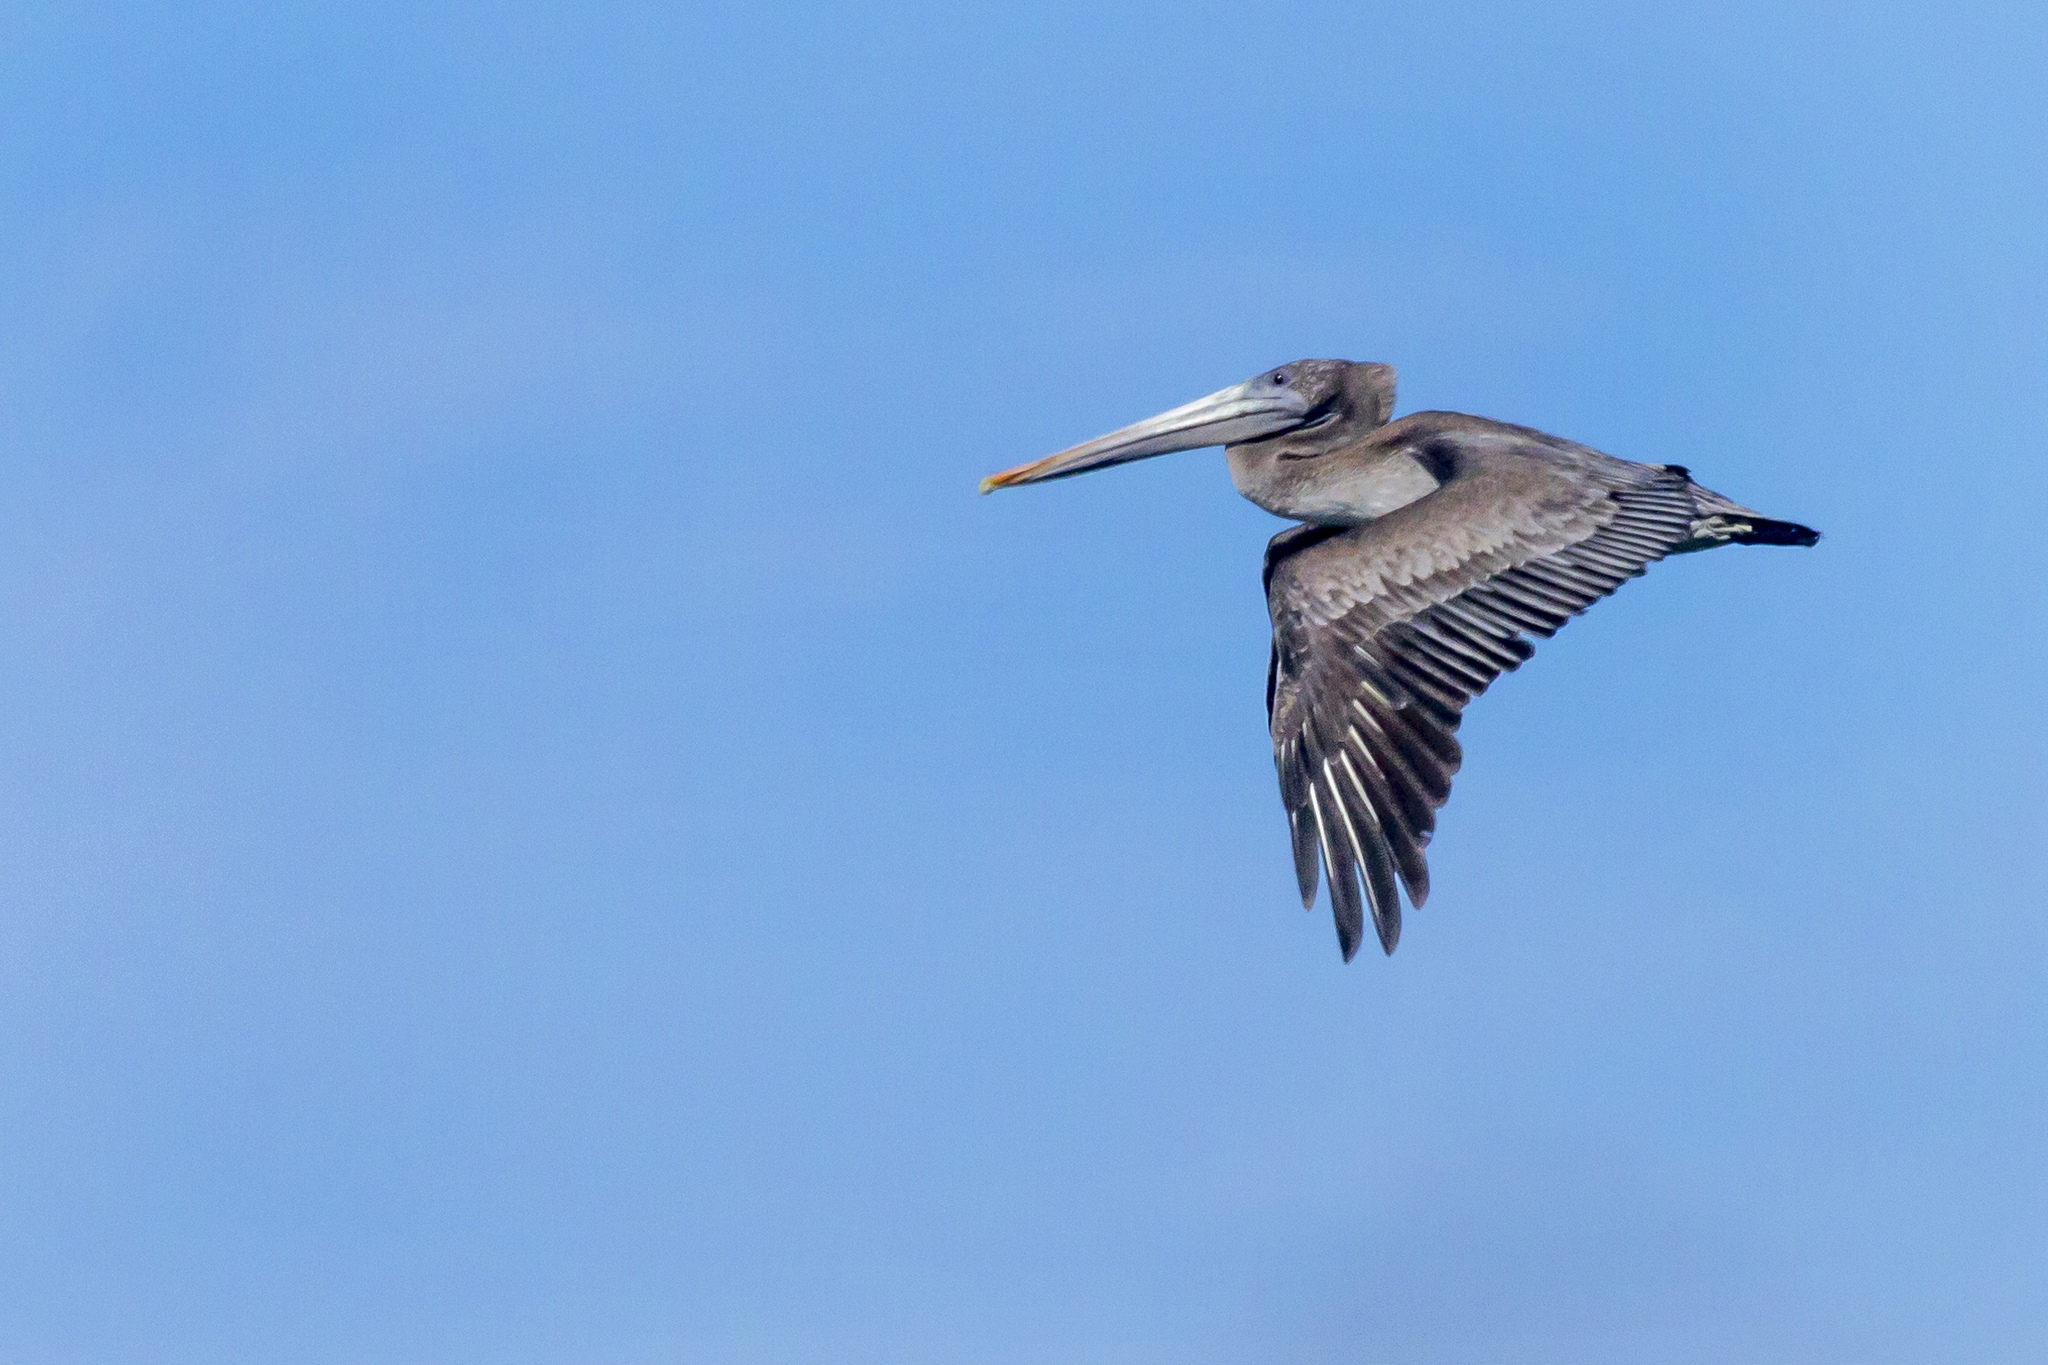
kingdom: Animalia
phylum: Chordata
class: Aves
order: Pelecaniformes
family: Pelecanidae
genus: Pelecanus
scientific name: Pelecanus occidentalis
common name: Brown pelican
